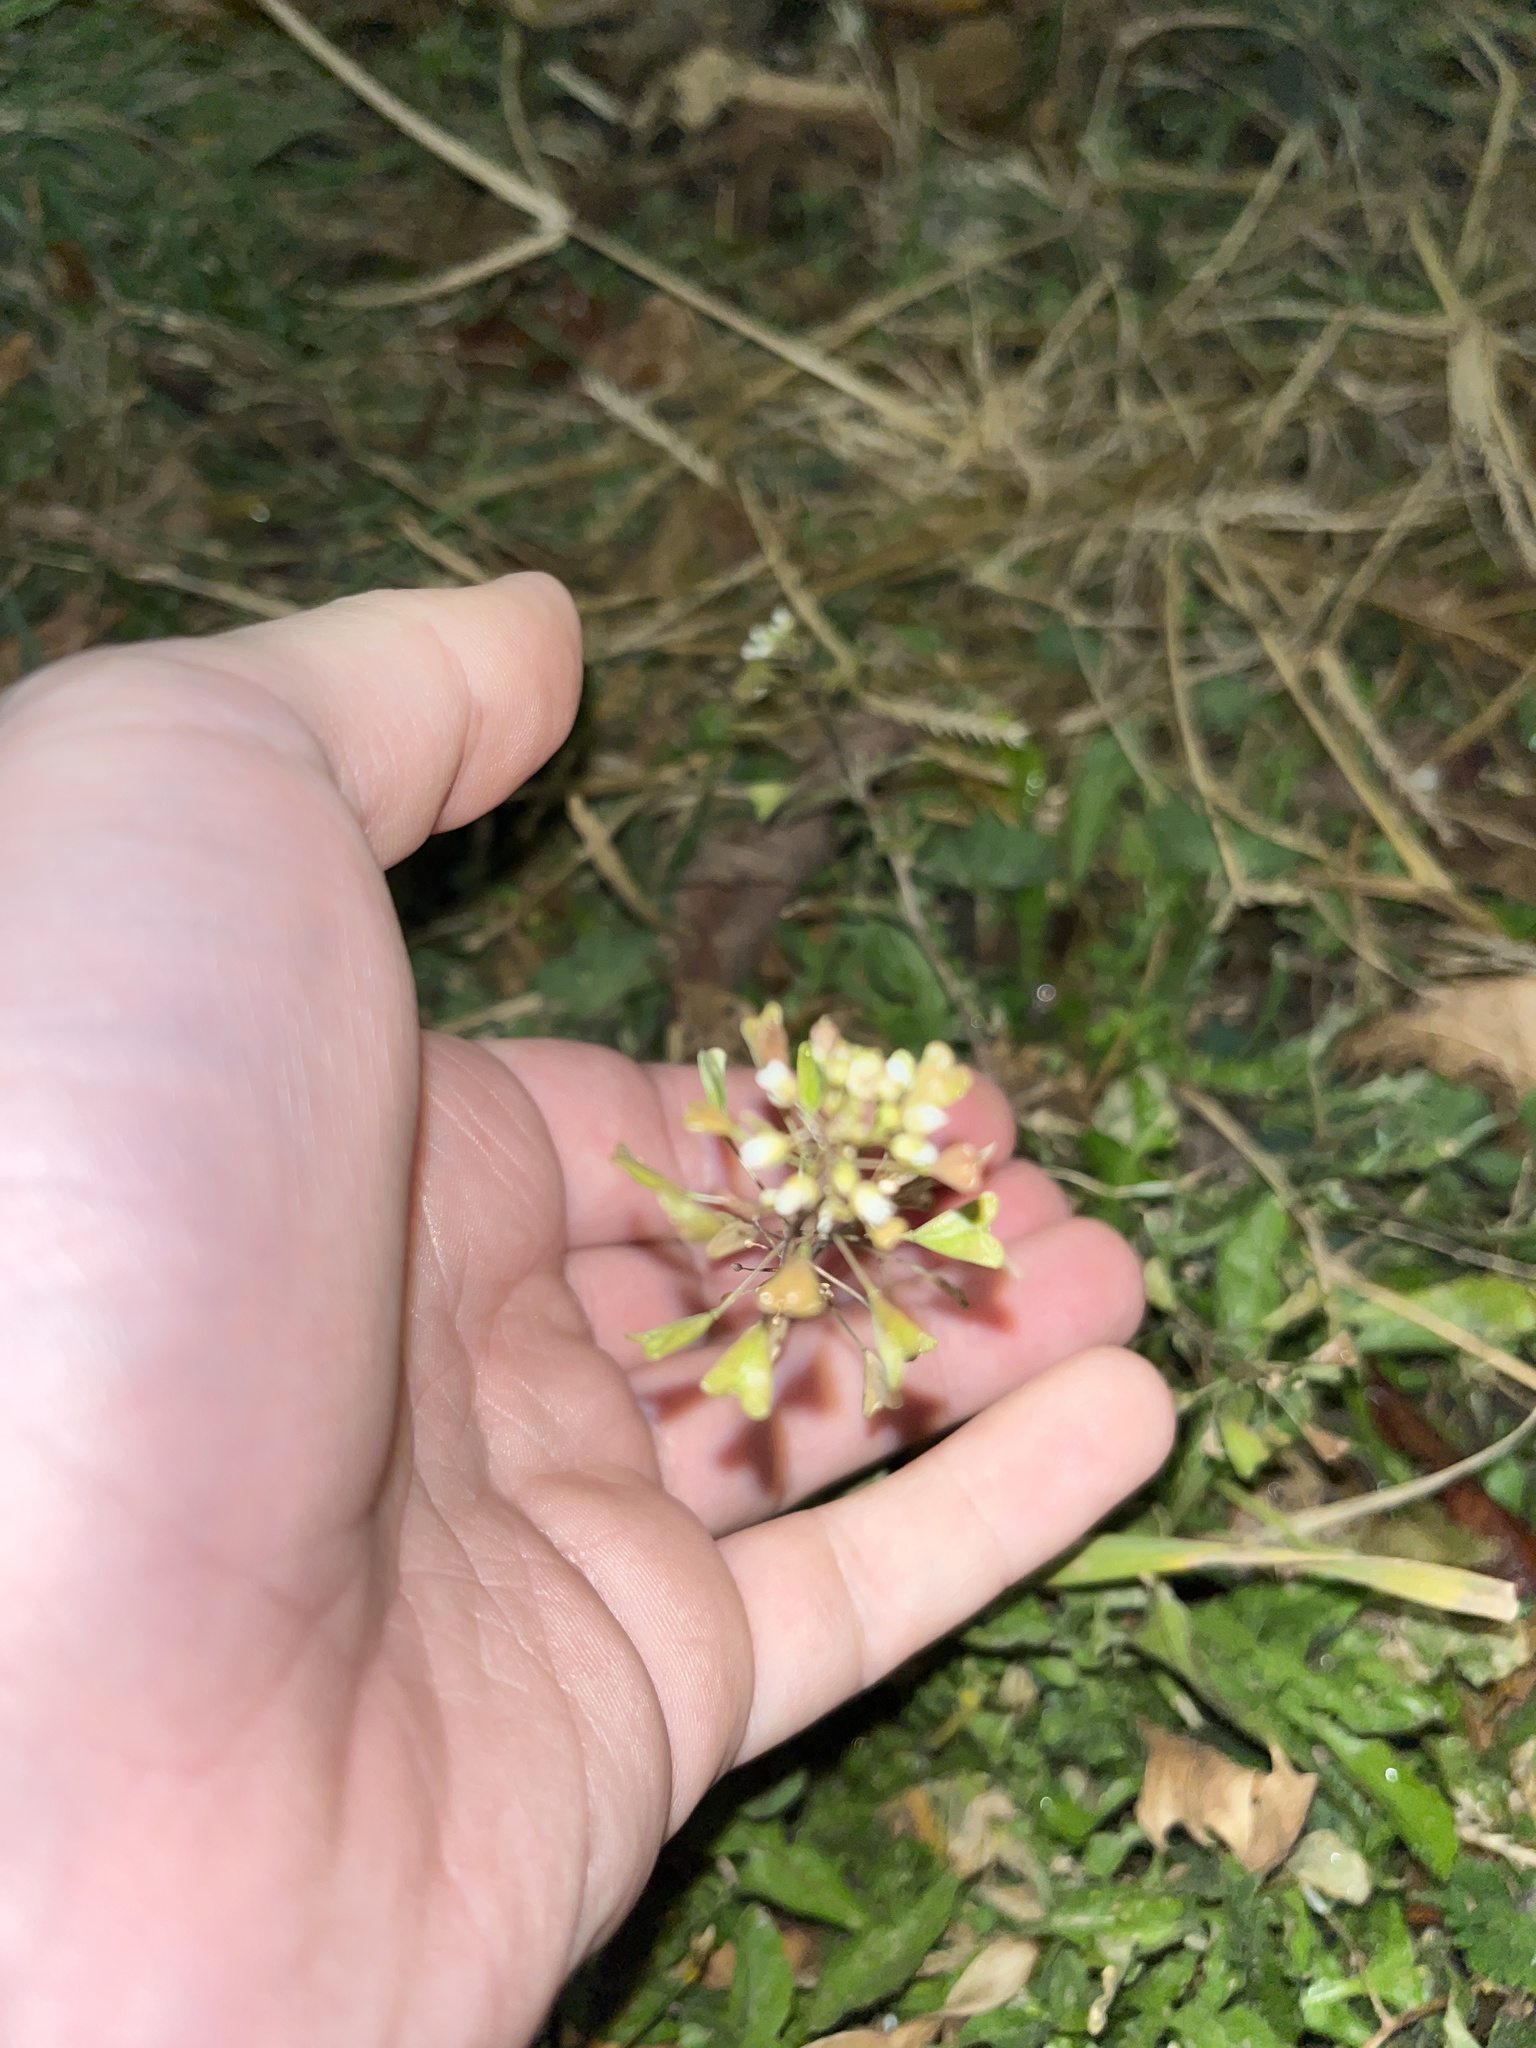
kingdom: Plantae
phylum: Tracheophyta
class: Magnoliopsida
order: Brassicales
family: Brassicaceae
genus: Capsella
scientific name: Capsella bursa-pastoris
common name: Shepherd's purse
